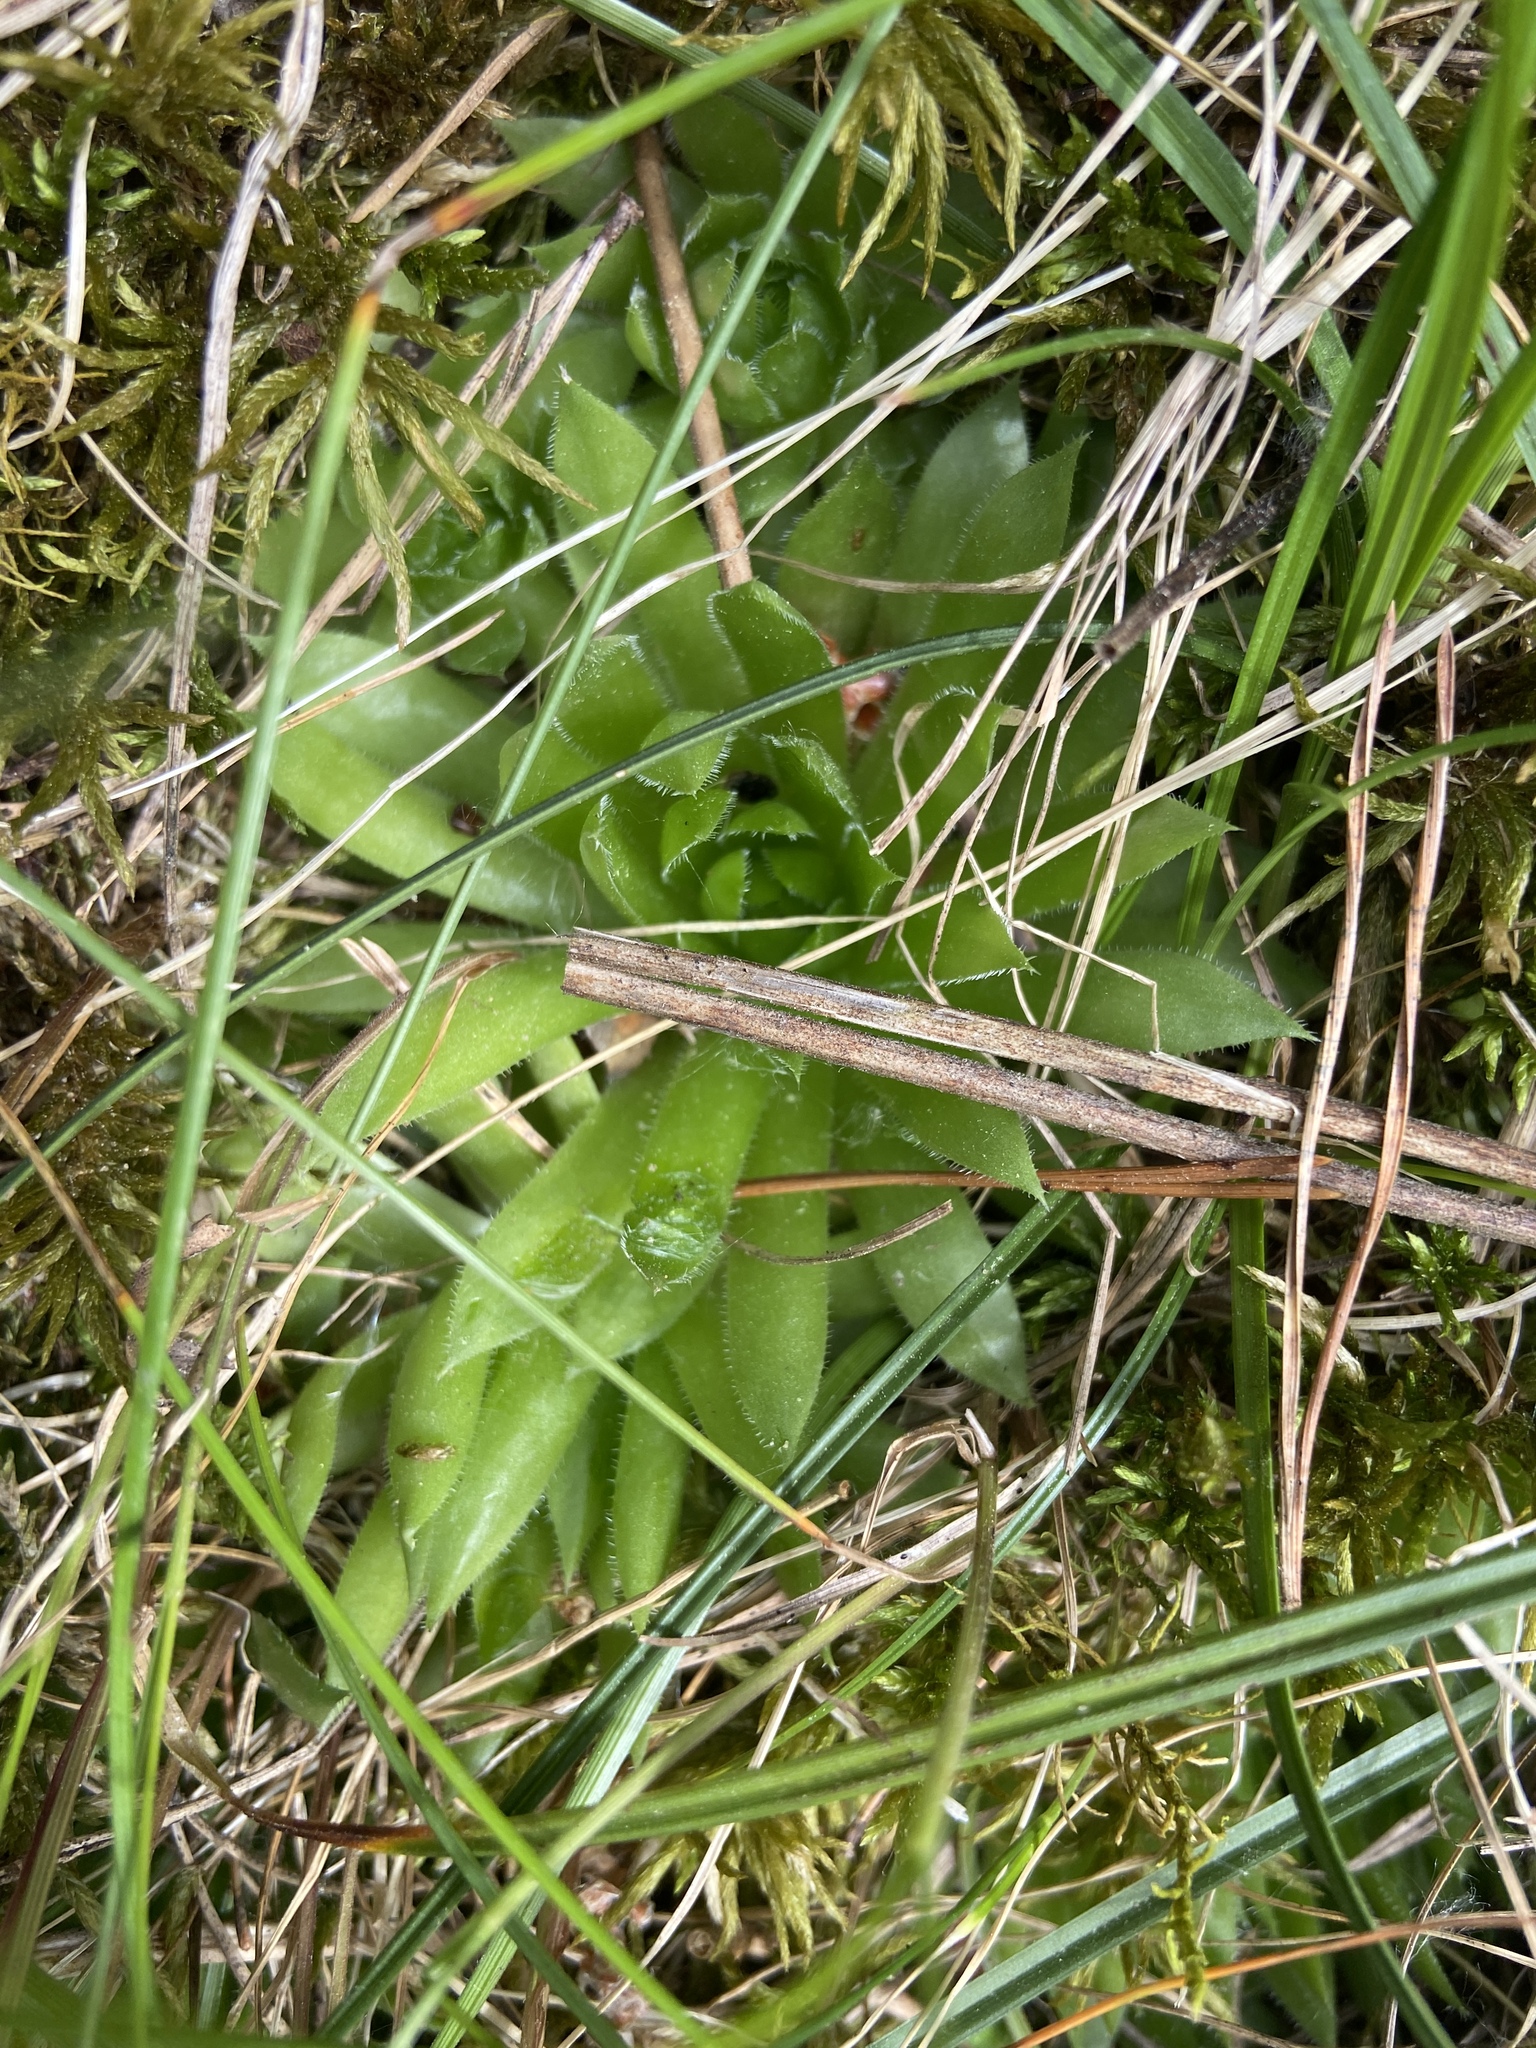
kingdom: Plantae
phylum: Tracheophyta
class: Magnoliopsida
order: Saxifragales
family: Crassulaceae
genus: Sempervivum
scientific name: Sempervivum globiferum
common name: Rolling hen-and-chicks
